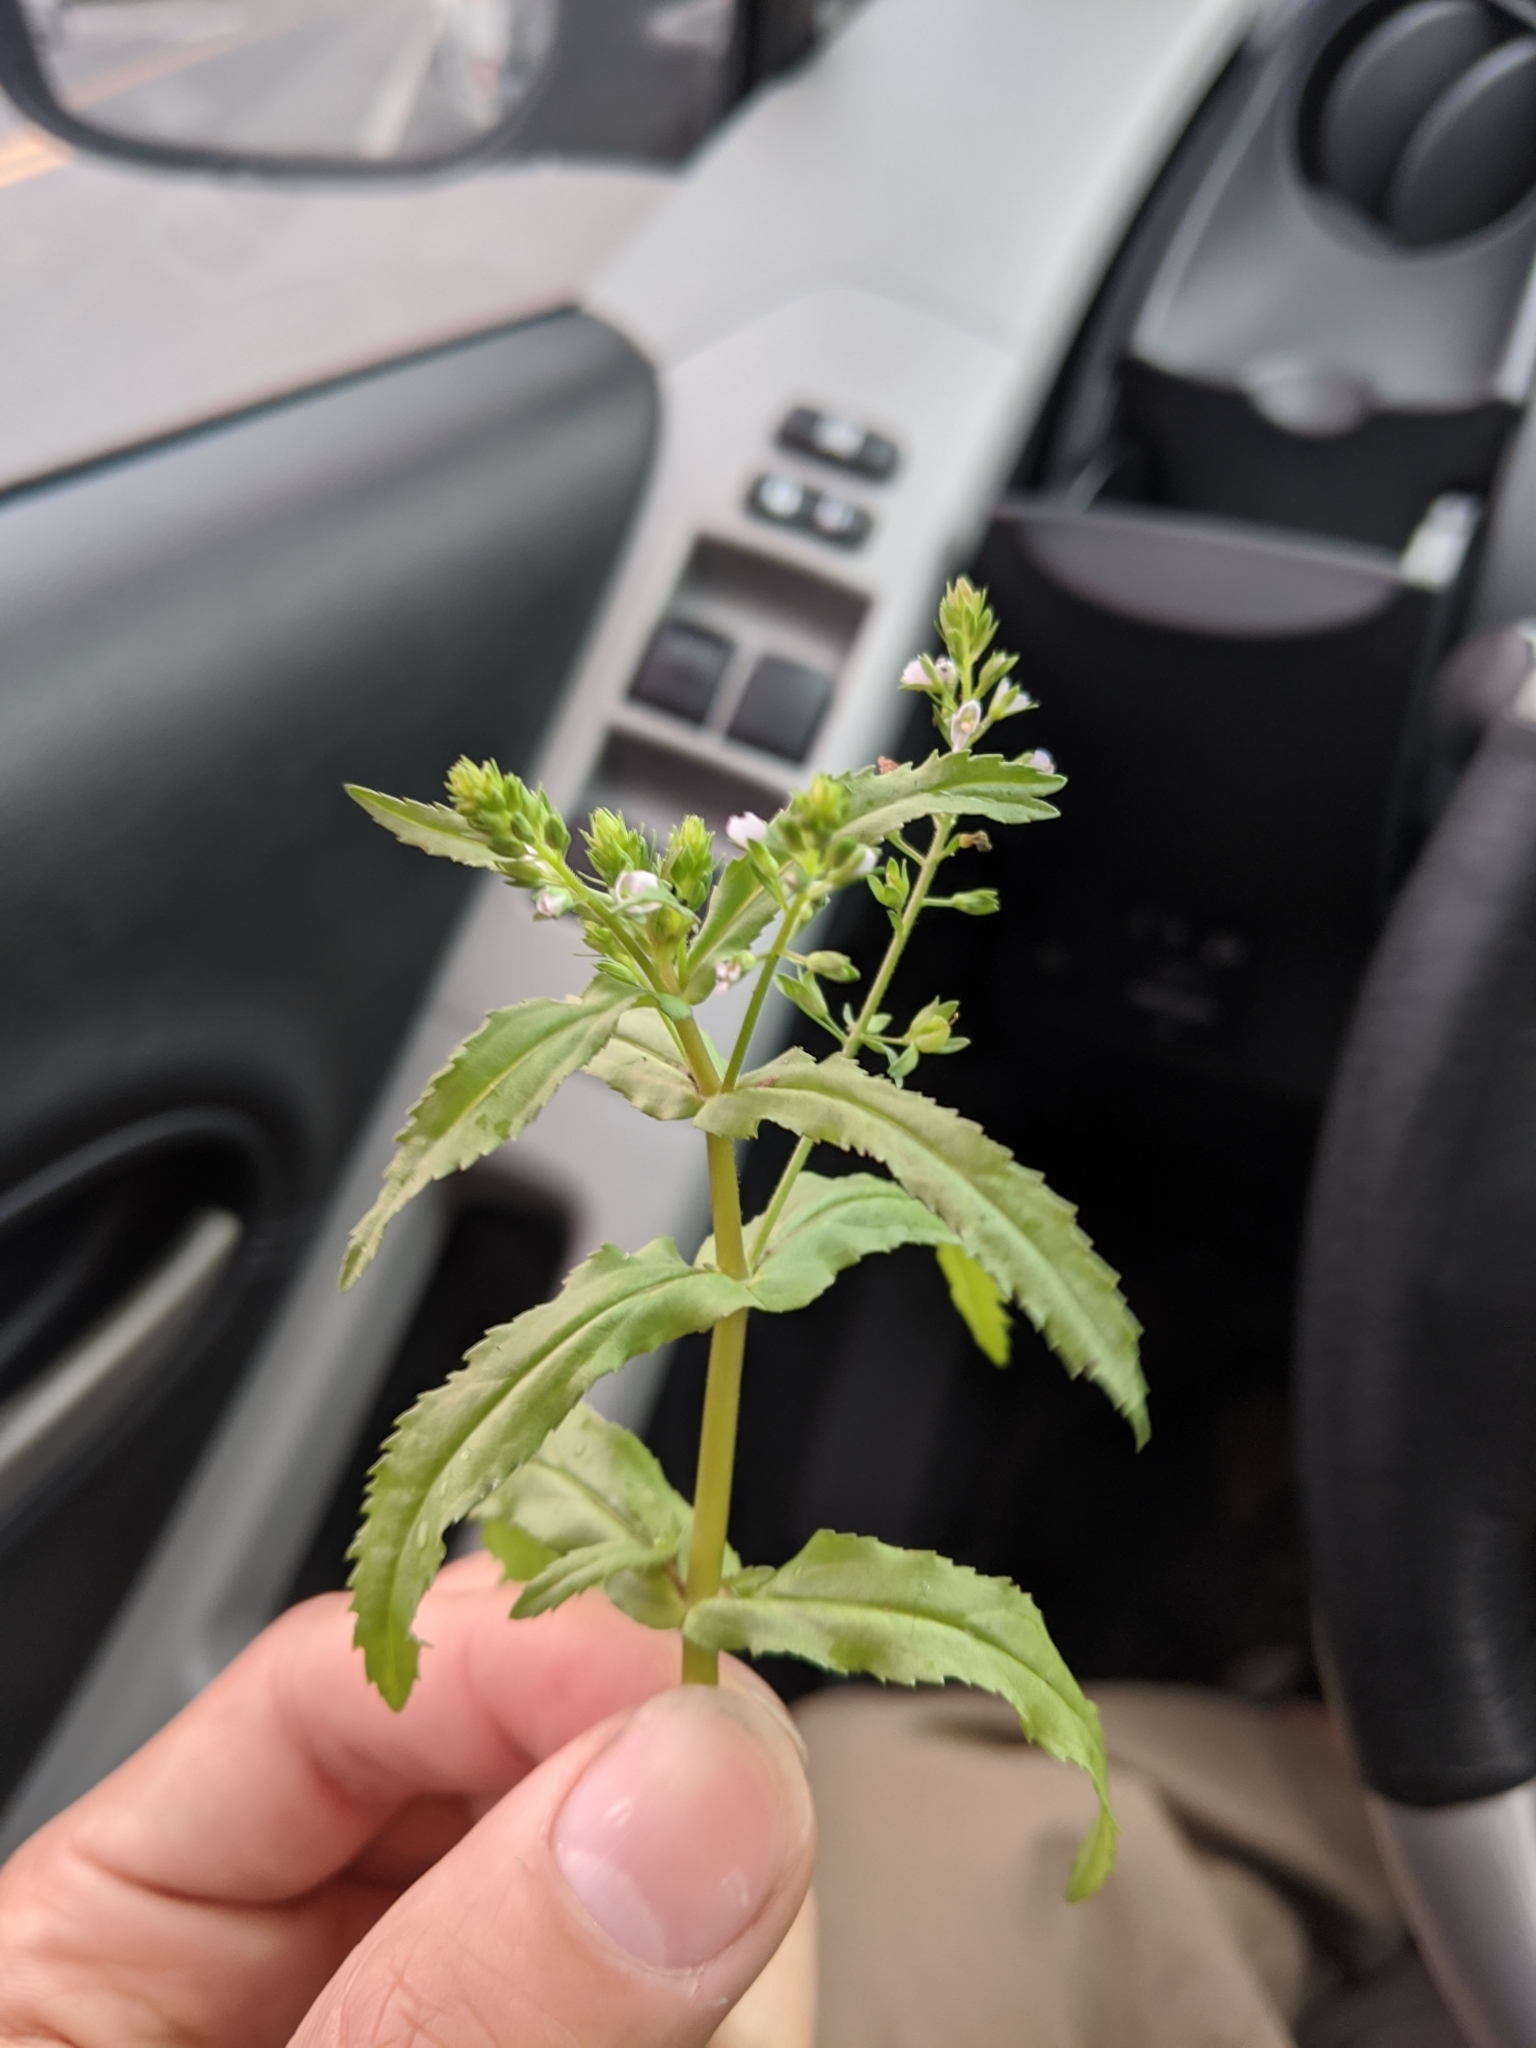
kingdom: Plantae
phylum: Tracheophyta
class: Magnoliopsida
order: Lamiales
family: Plantaginaceae
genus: Veronica
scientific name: Veronica undulata
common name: Undulate speedwell
